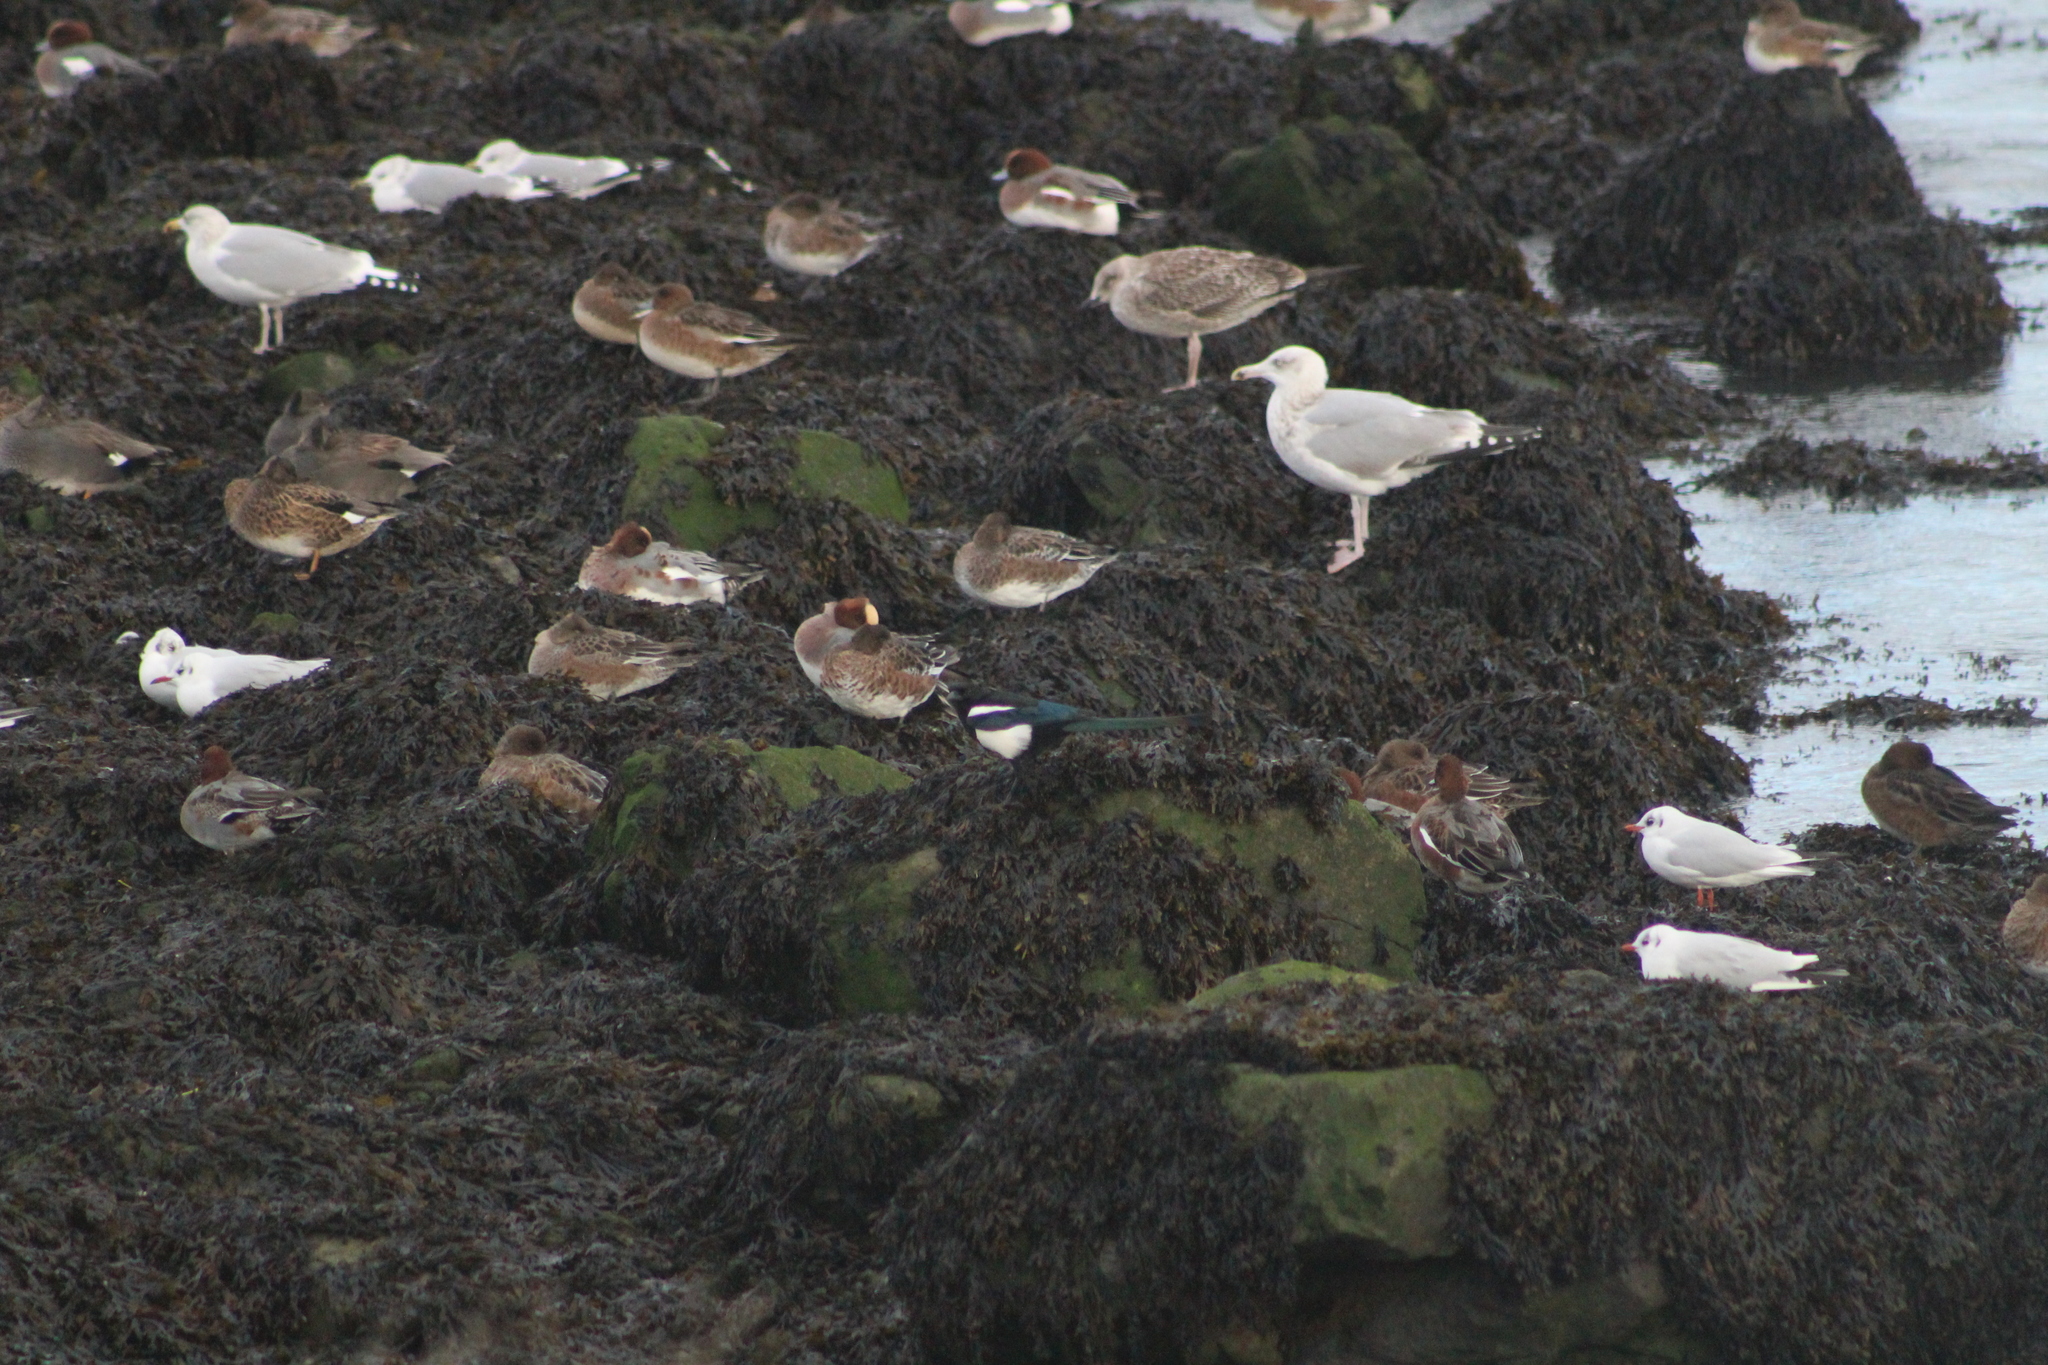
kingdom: Animalia
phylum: Chordata
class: Aves
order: Passeriformes
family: Corvidae
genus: Pica
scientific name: Pica pica
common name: Eurasian magpie
